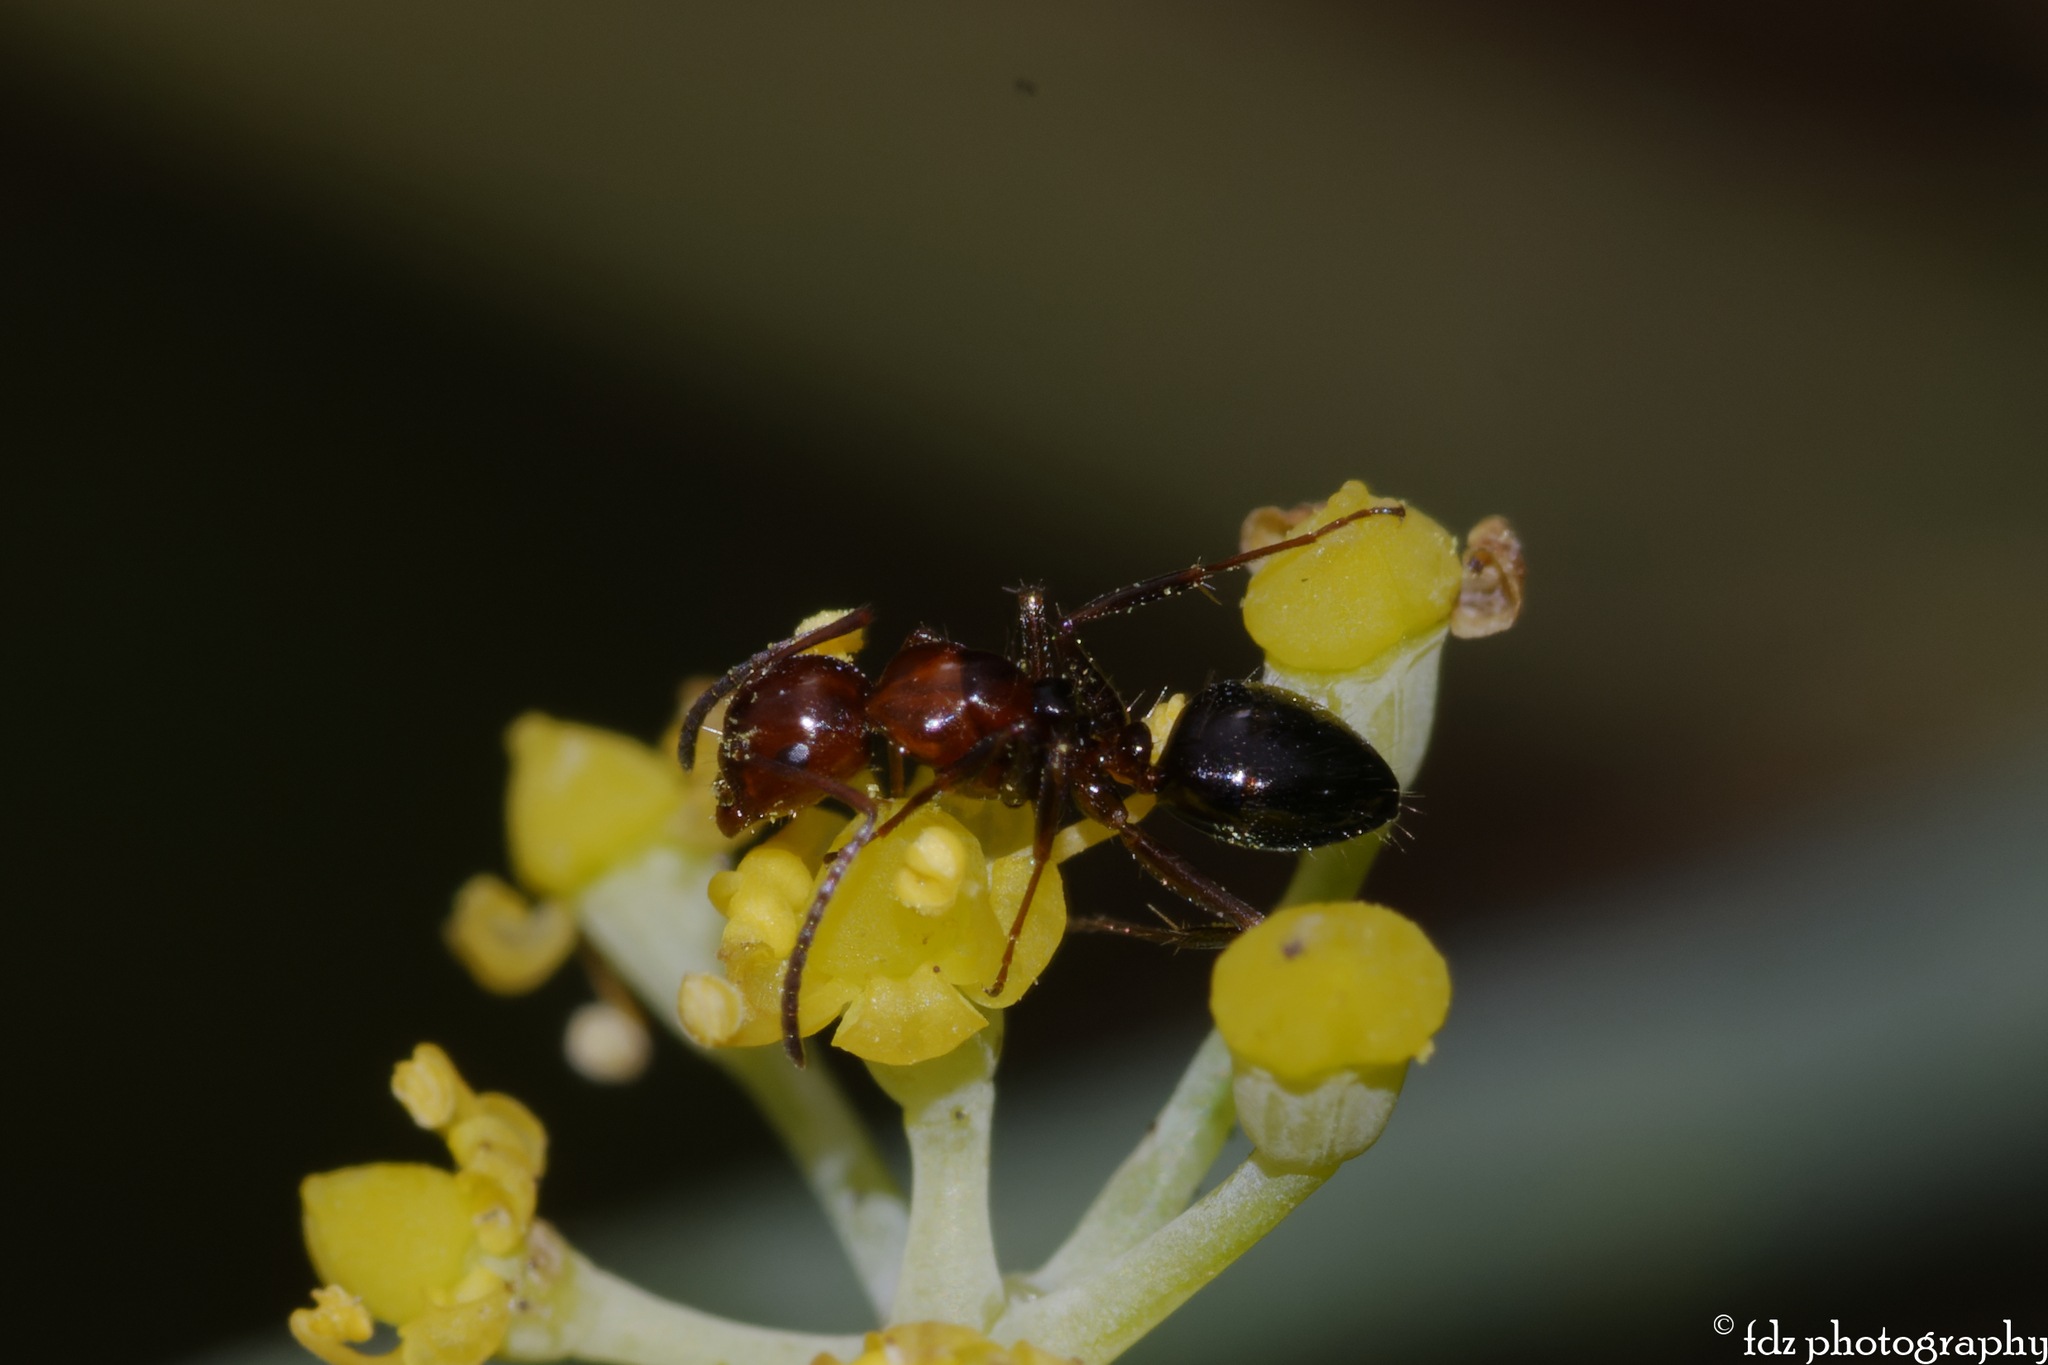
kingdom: Animalia
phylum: Arthropoda
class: Insecta
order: Hymenoptera
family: Formicidae
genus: Camponotus
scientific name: Camponotus lateralis
